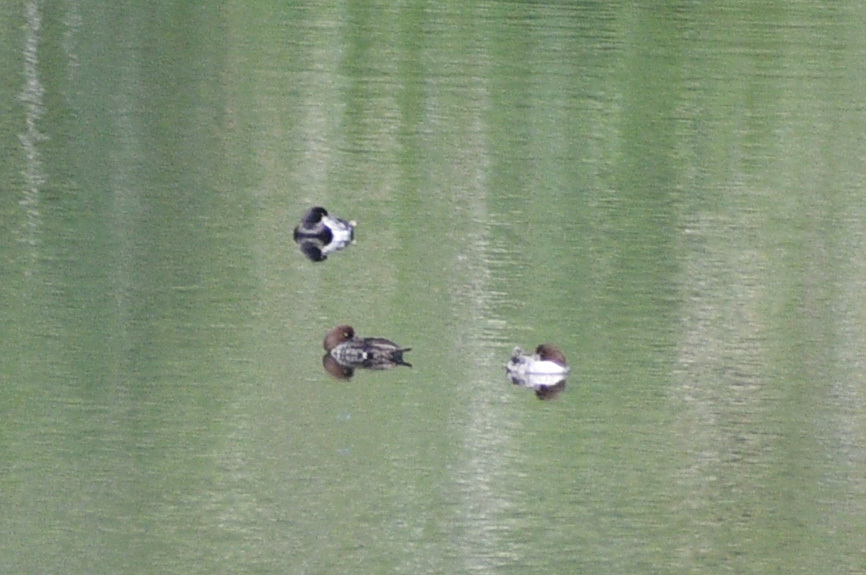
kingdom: Animalia
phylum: Chordata
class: Aves
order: Anseriformes
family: Anatidae
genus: Bucephala
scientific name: Bucephala clangula
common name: Common goldeneye
